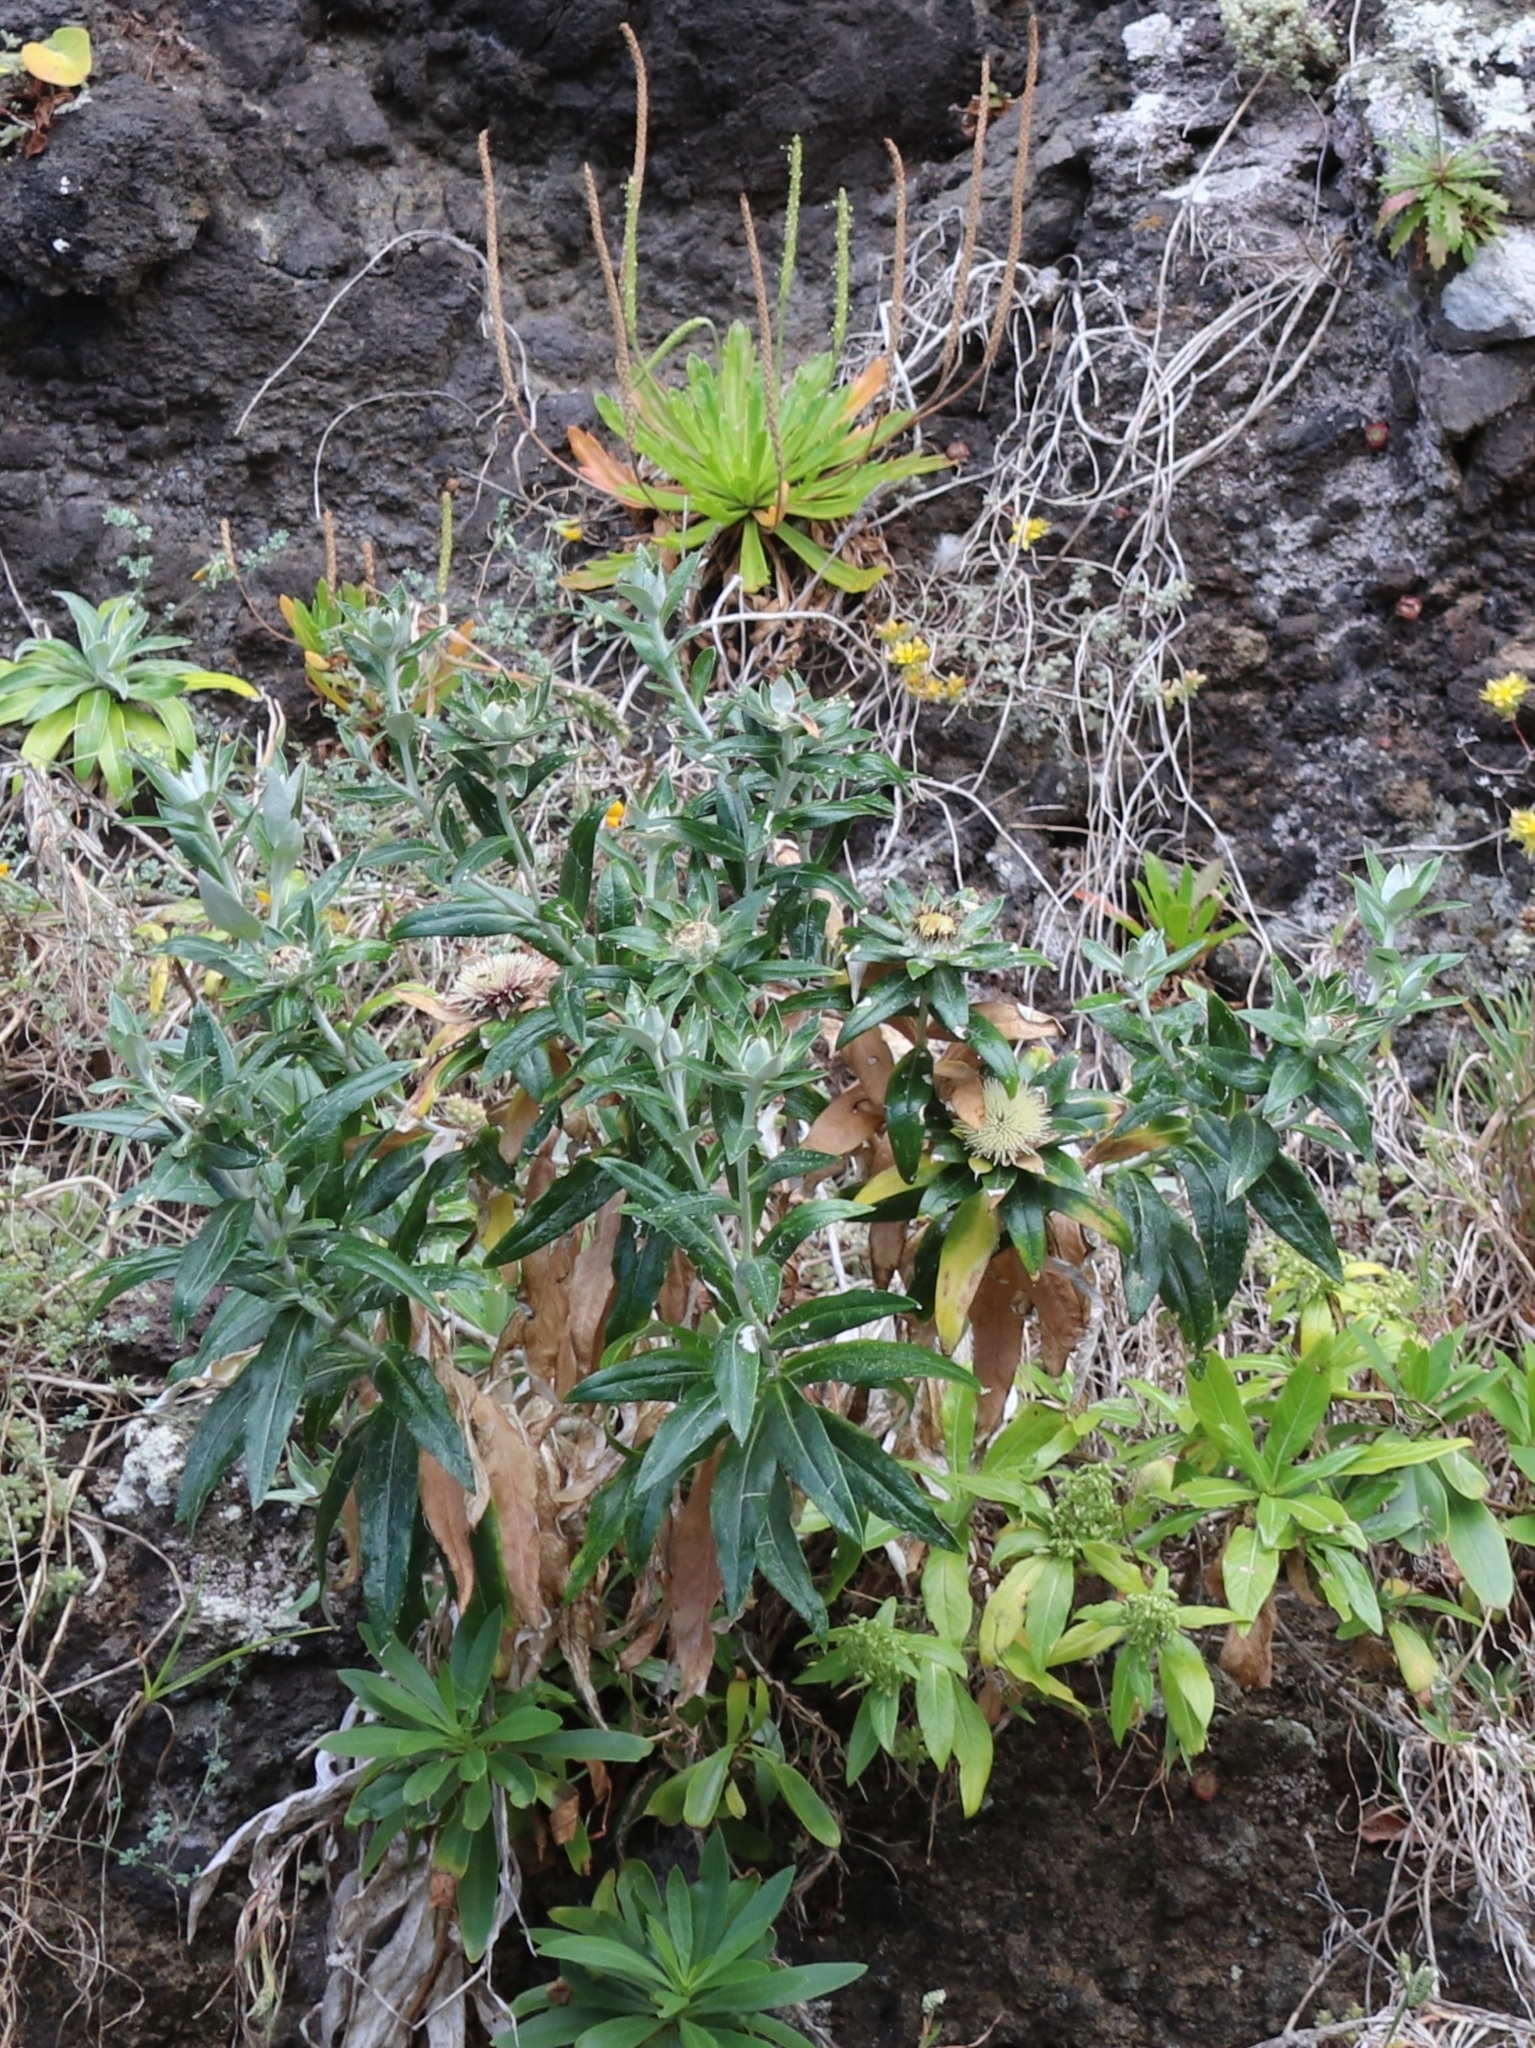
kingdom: Plantae
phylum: Tracheophyta
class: Magnoliopsida
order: Asterales
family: Asteraceae
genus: Carlina
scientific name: Carlina salicifolia
